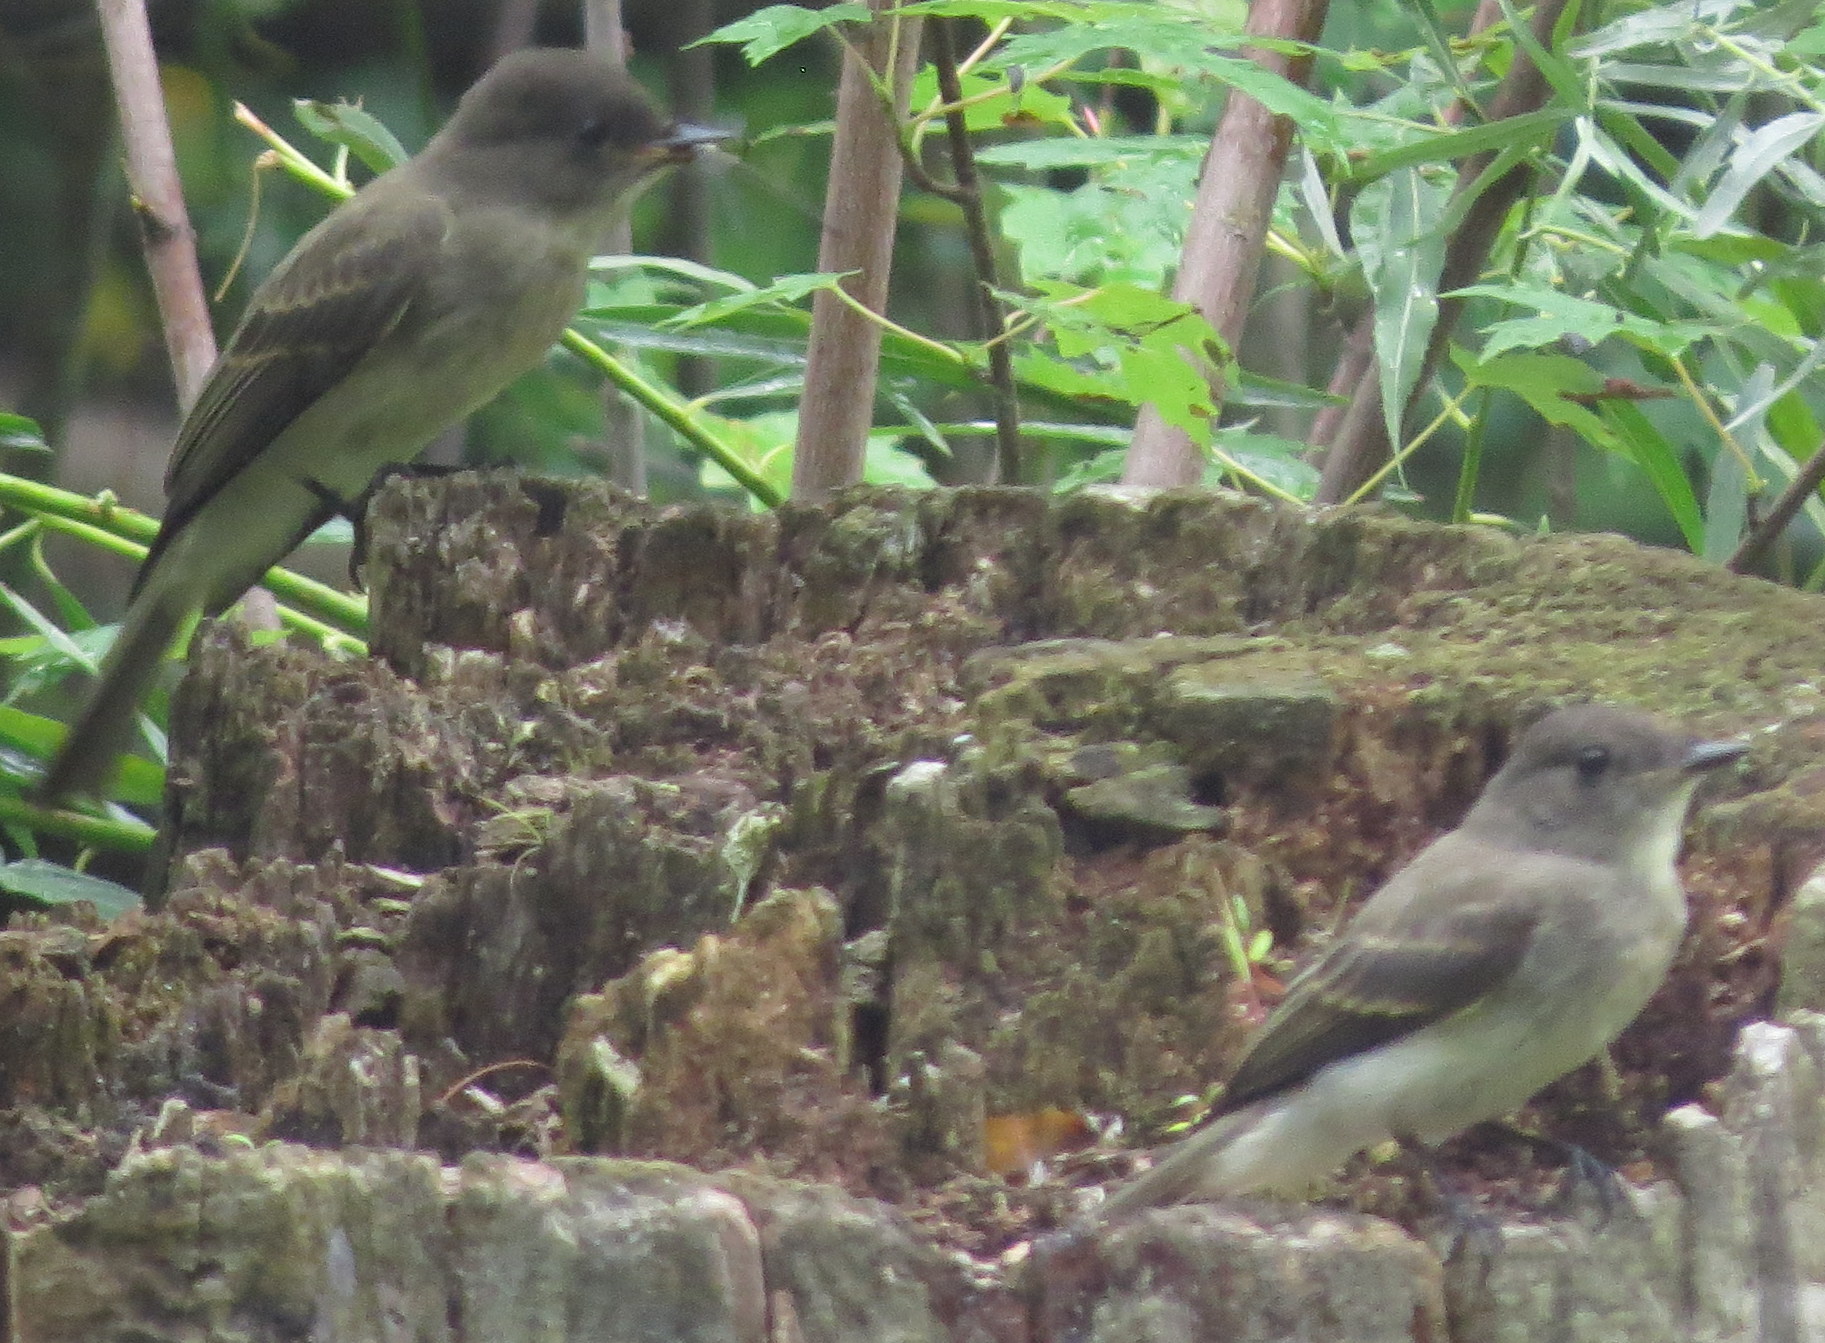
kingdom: Animalia
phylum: Chordata
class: Aves
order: Passeriformes
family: Tyrannidae
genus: Sayornis
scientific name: Sayornis phoebe
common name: Eastern phoebe
